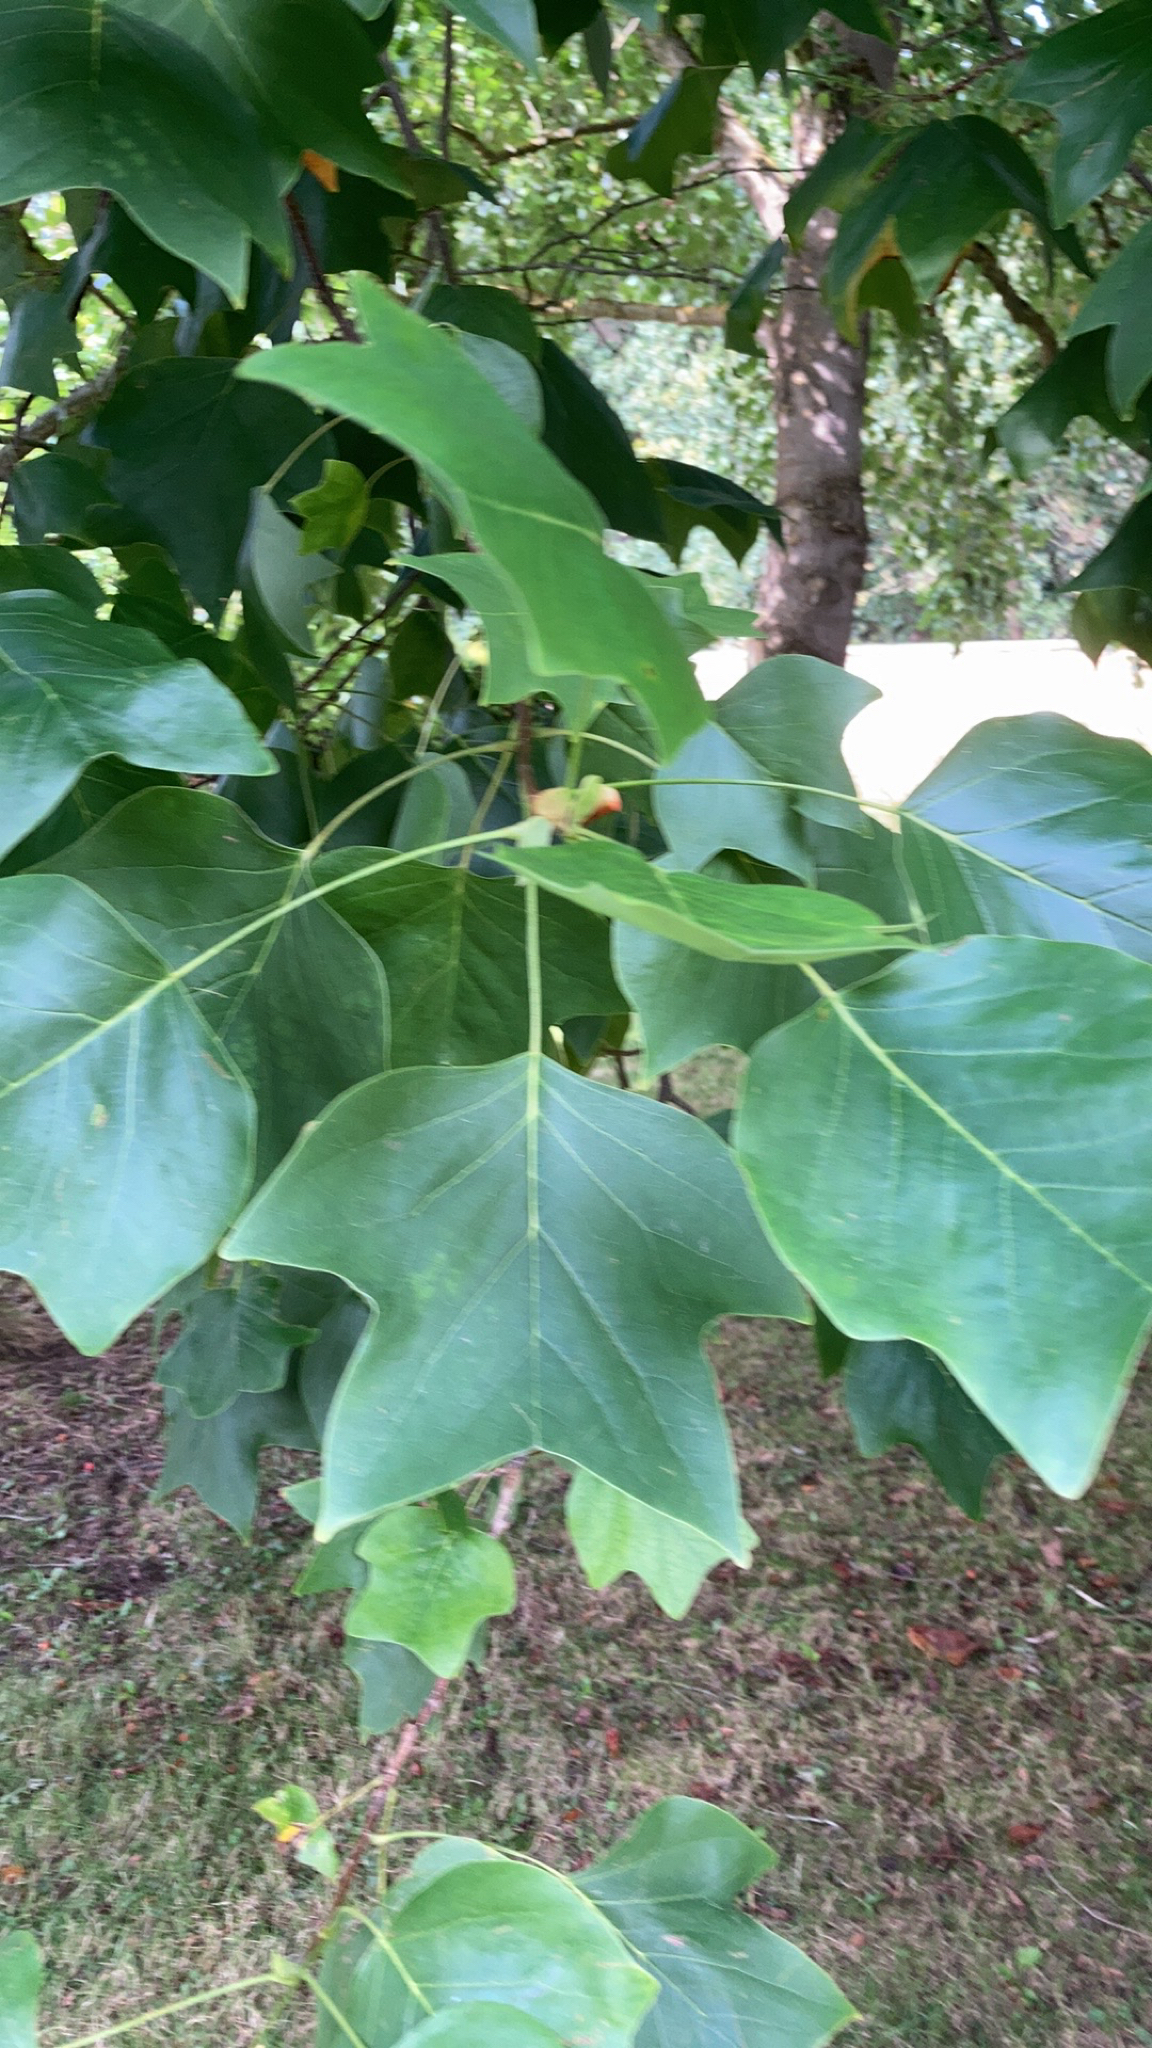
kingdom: Plantae
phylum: Tracheophyta
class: Magnoliopsida
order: Magnoliales
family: Magnoliaceae
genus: Liriodendron
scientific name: Liriodendron tulipifera
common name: Tulip tree
